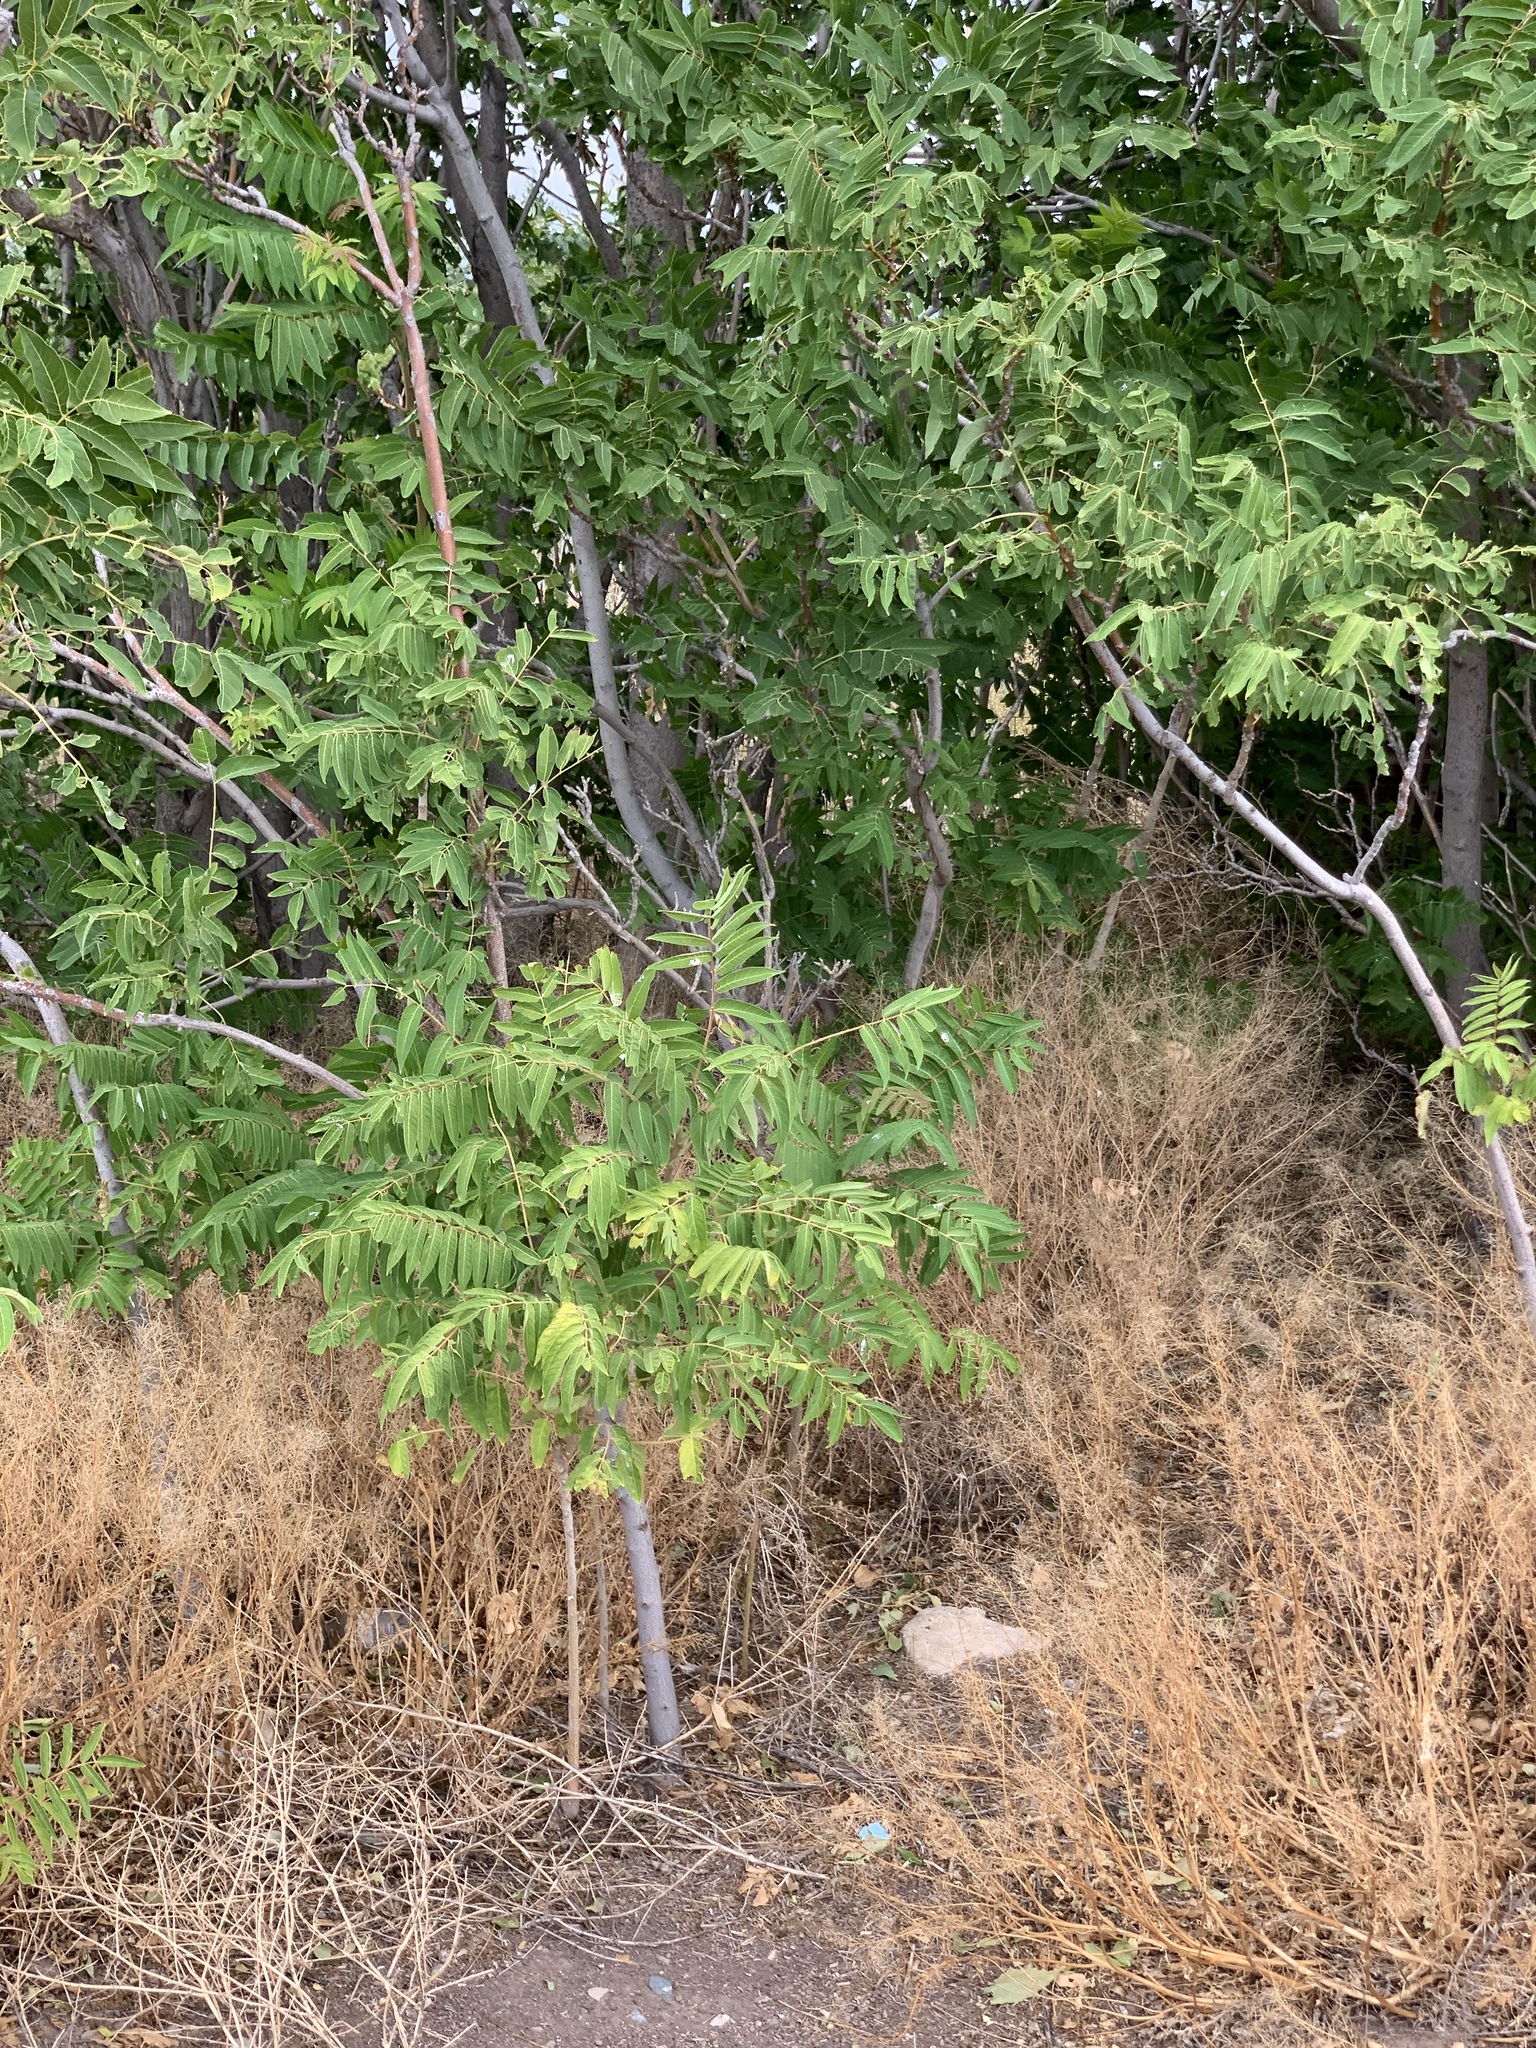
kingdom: Plantae
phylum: Tracheophyta
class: Magnoliopsida
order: Sapindales
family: Simaroubaceae
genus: Ailanthus
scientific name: Ailanthus altissima
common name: Tree-of-heaven
